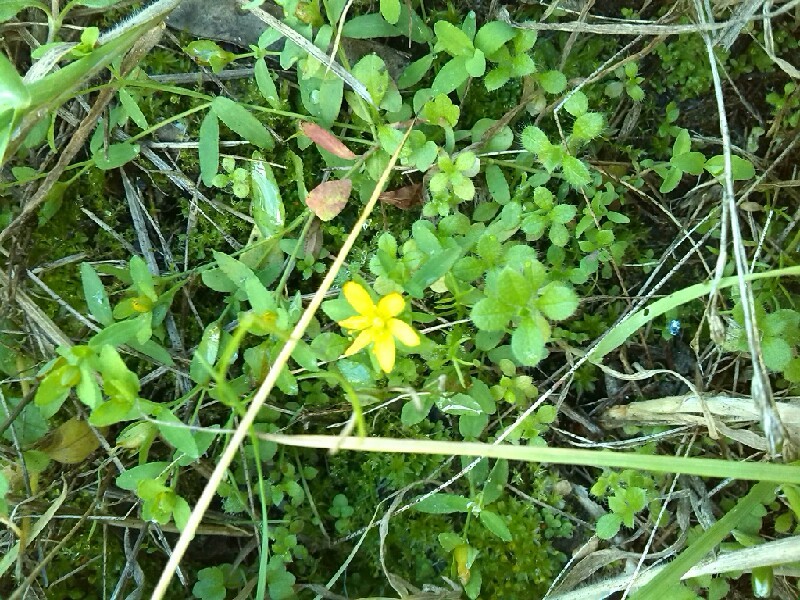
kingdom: Plantae
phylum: Tracheophyta
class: Magnoliopsida
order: Malpighiales
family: Hypericaceae
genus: Hypericum
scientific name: Hypericum humifusum
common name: Trailing st. john's-wort
